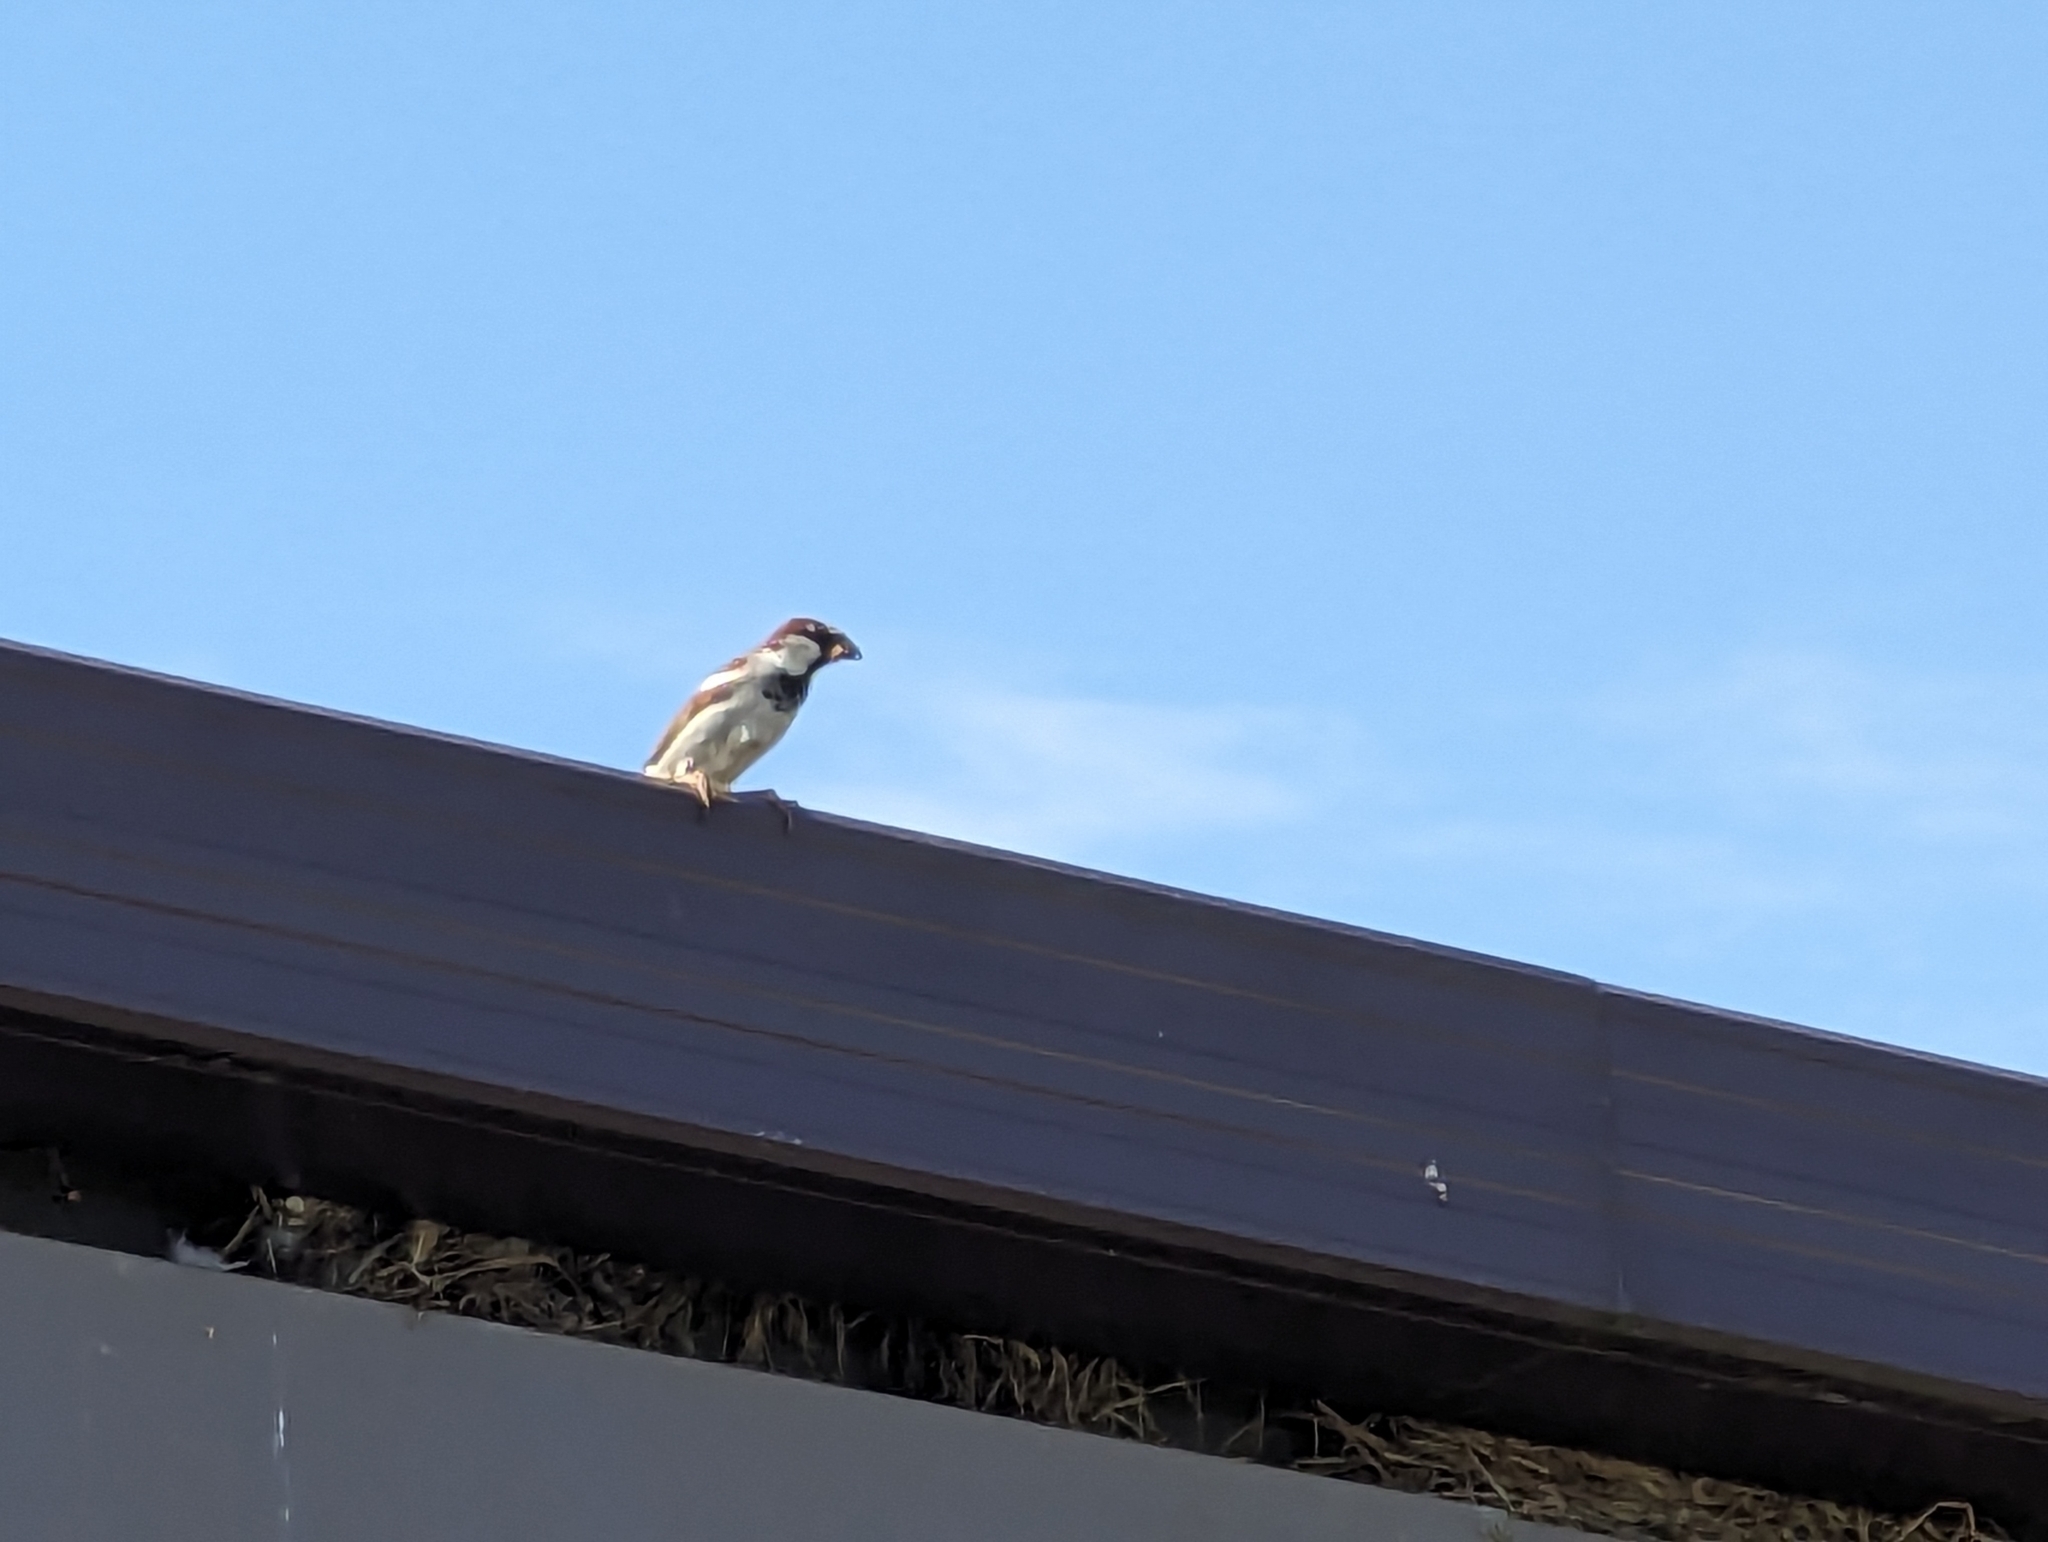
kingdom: Animalia
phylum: Chordata
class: Aves
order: Passeriformes
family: Passeridae
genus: Passer
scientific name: Passer domesticus
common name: House sparrow
